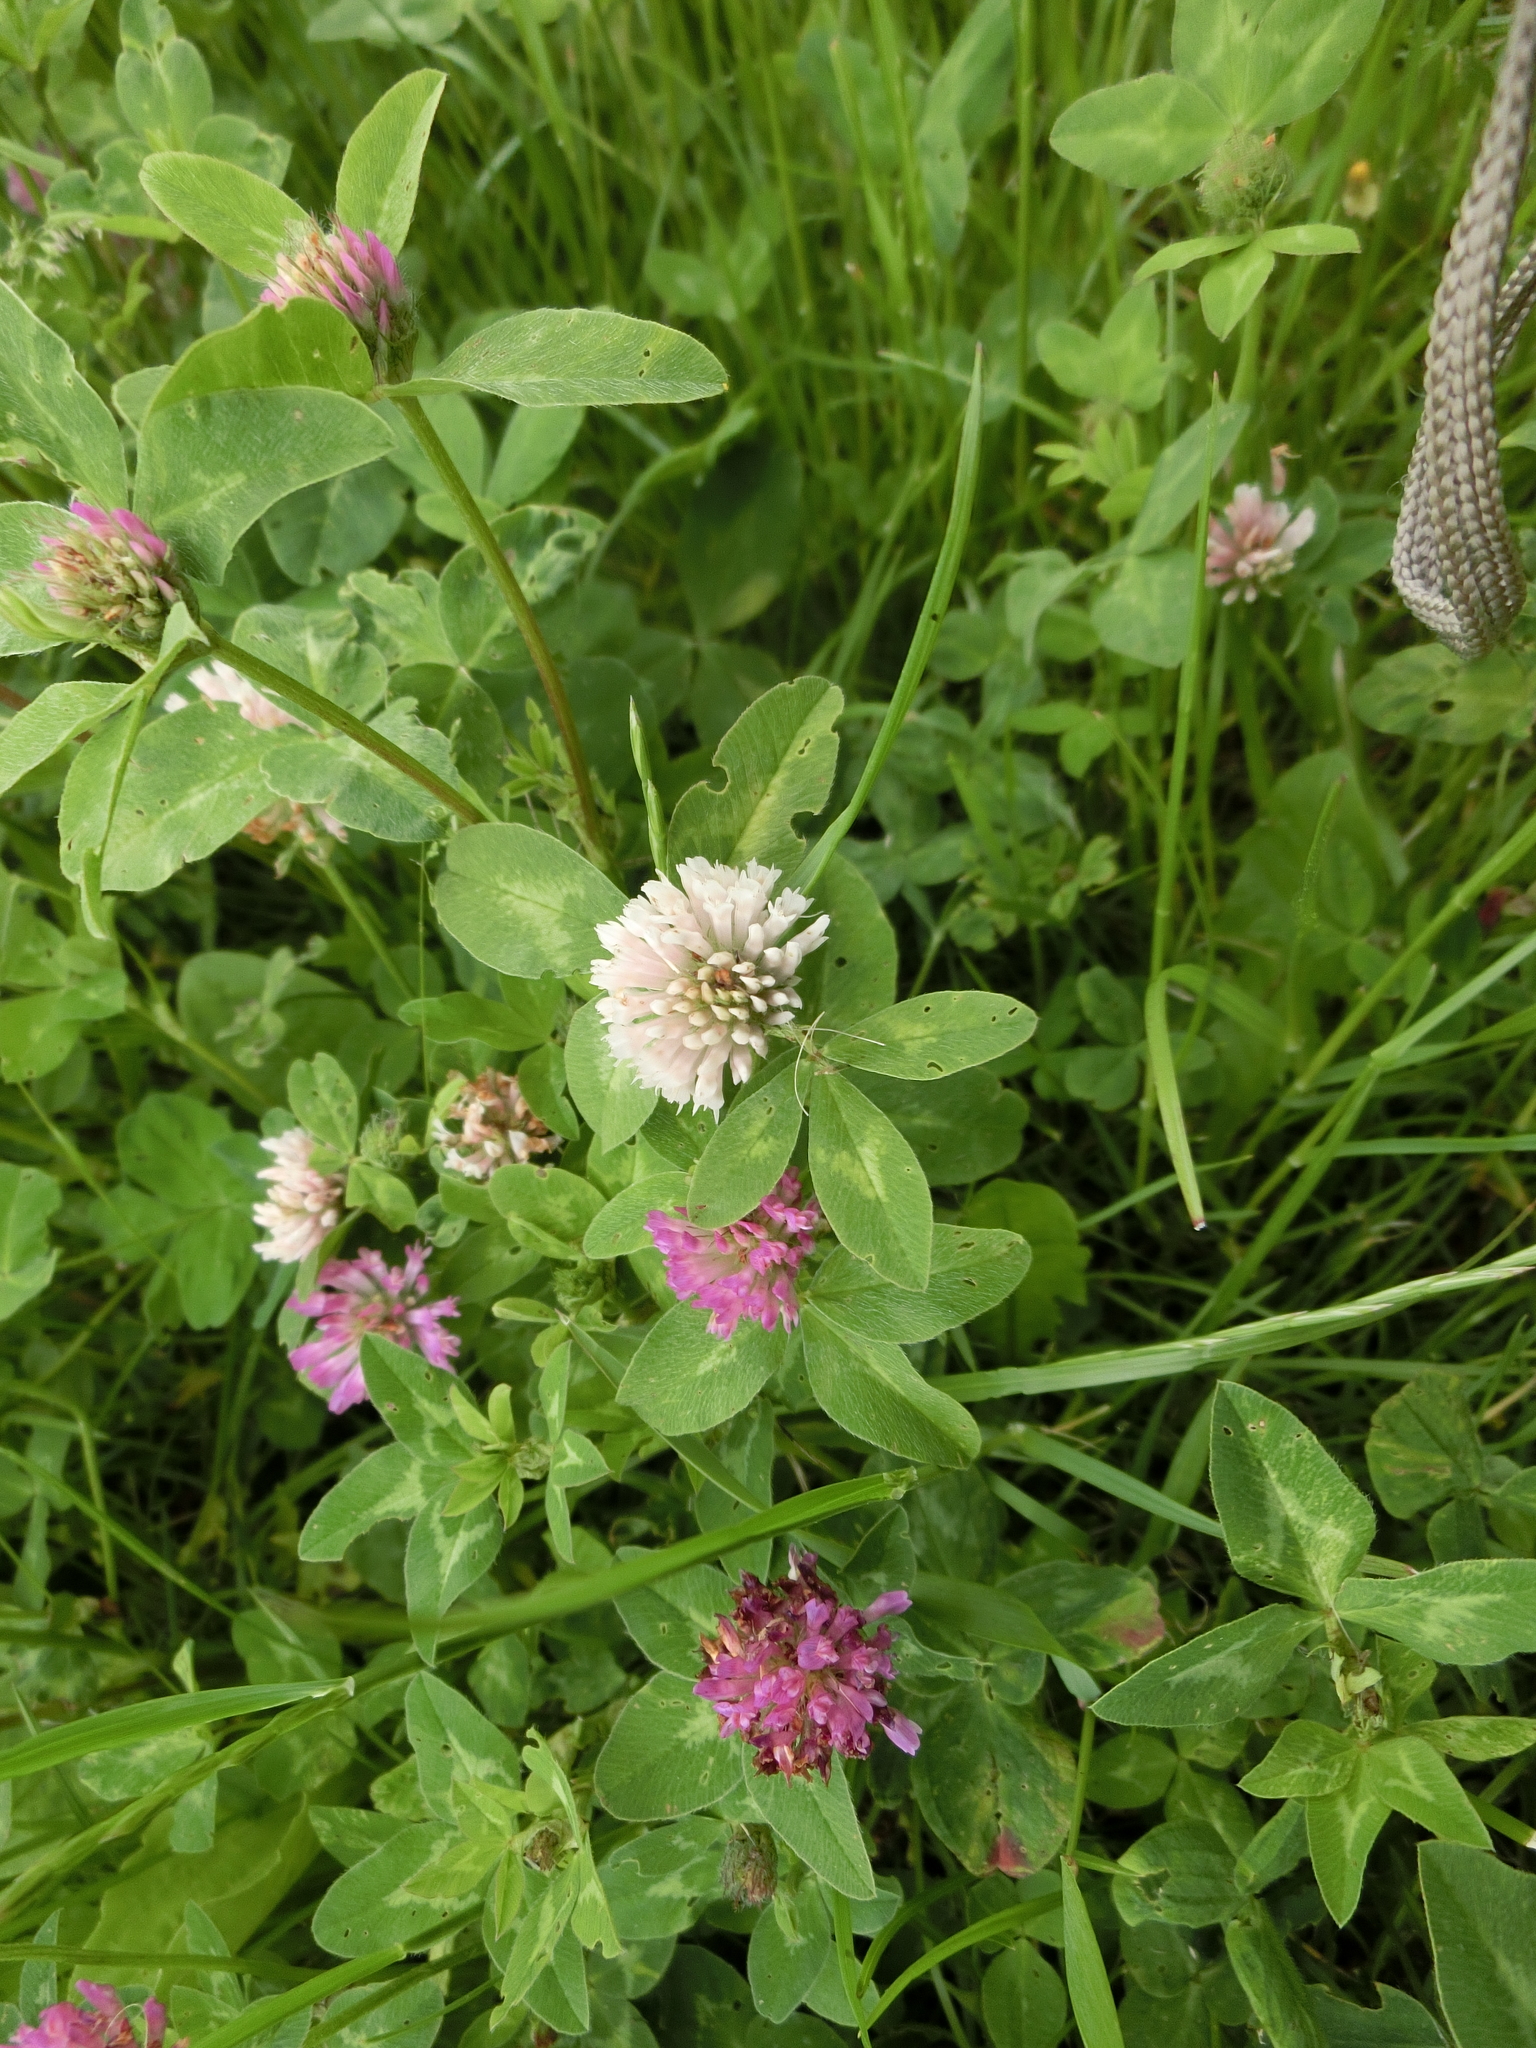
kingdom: Plantae
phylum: Tracheophyta
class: Magnoliopsida
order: Fabales
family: Fabaceae
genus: Trifolium
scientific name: Trifolium pratense
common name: Red clover
